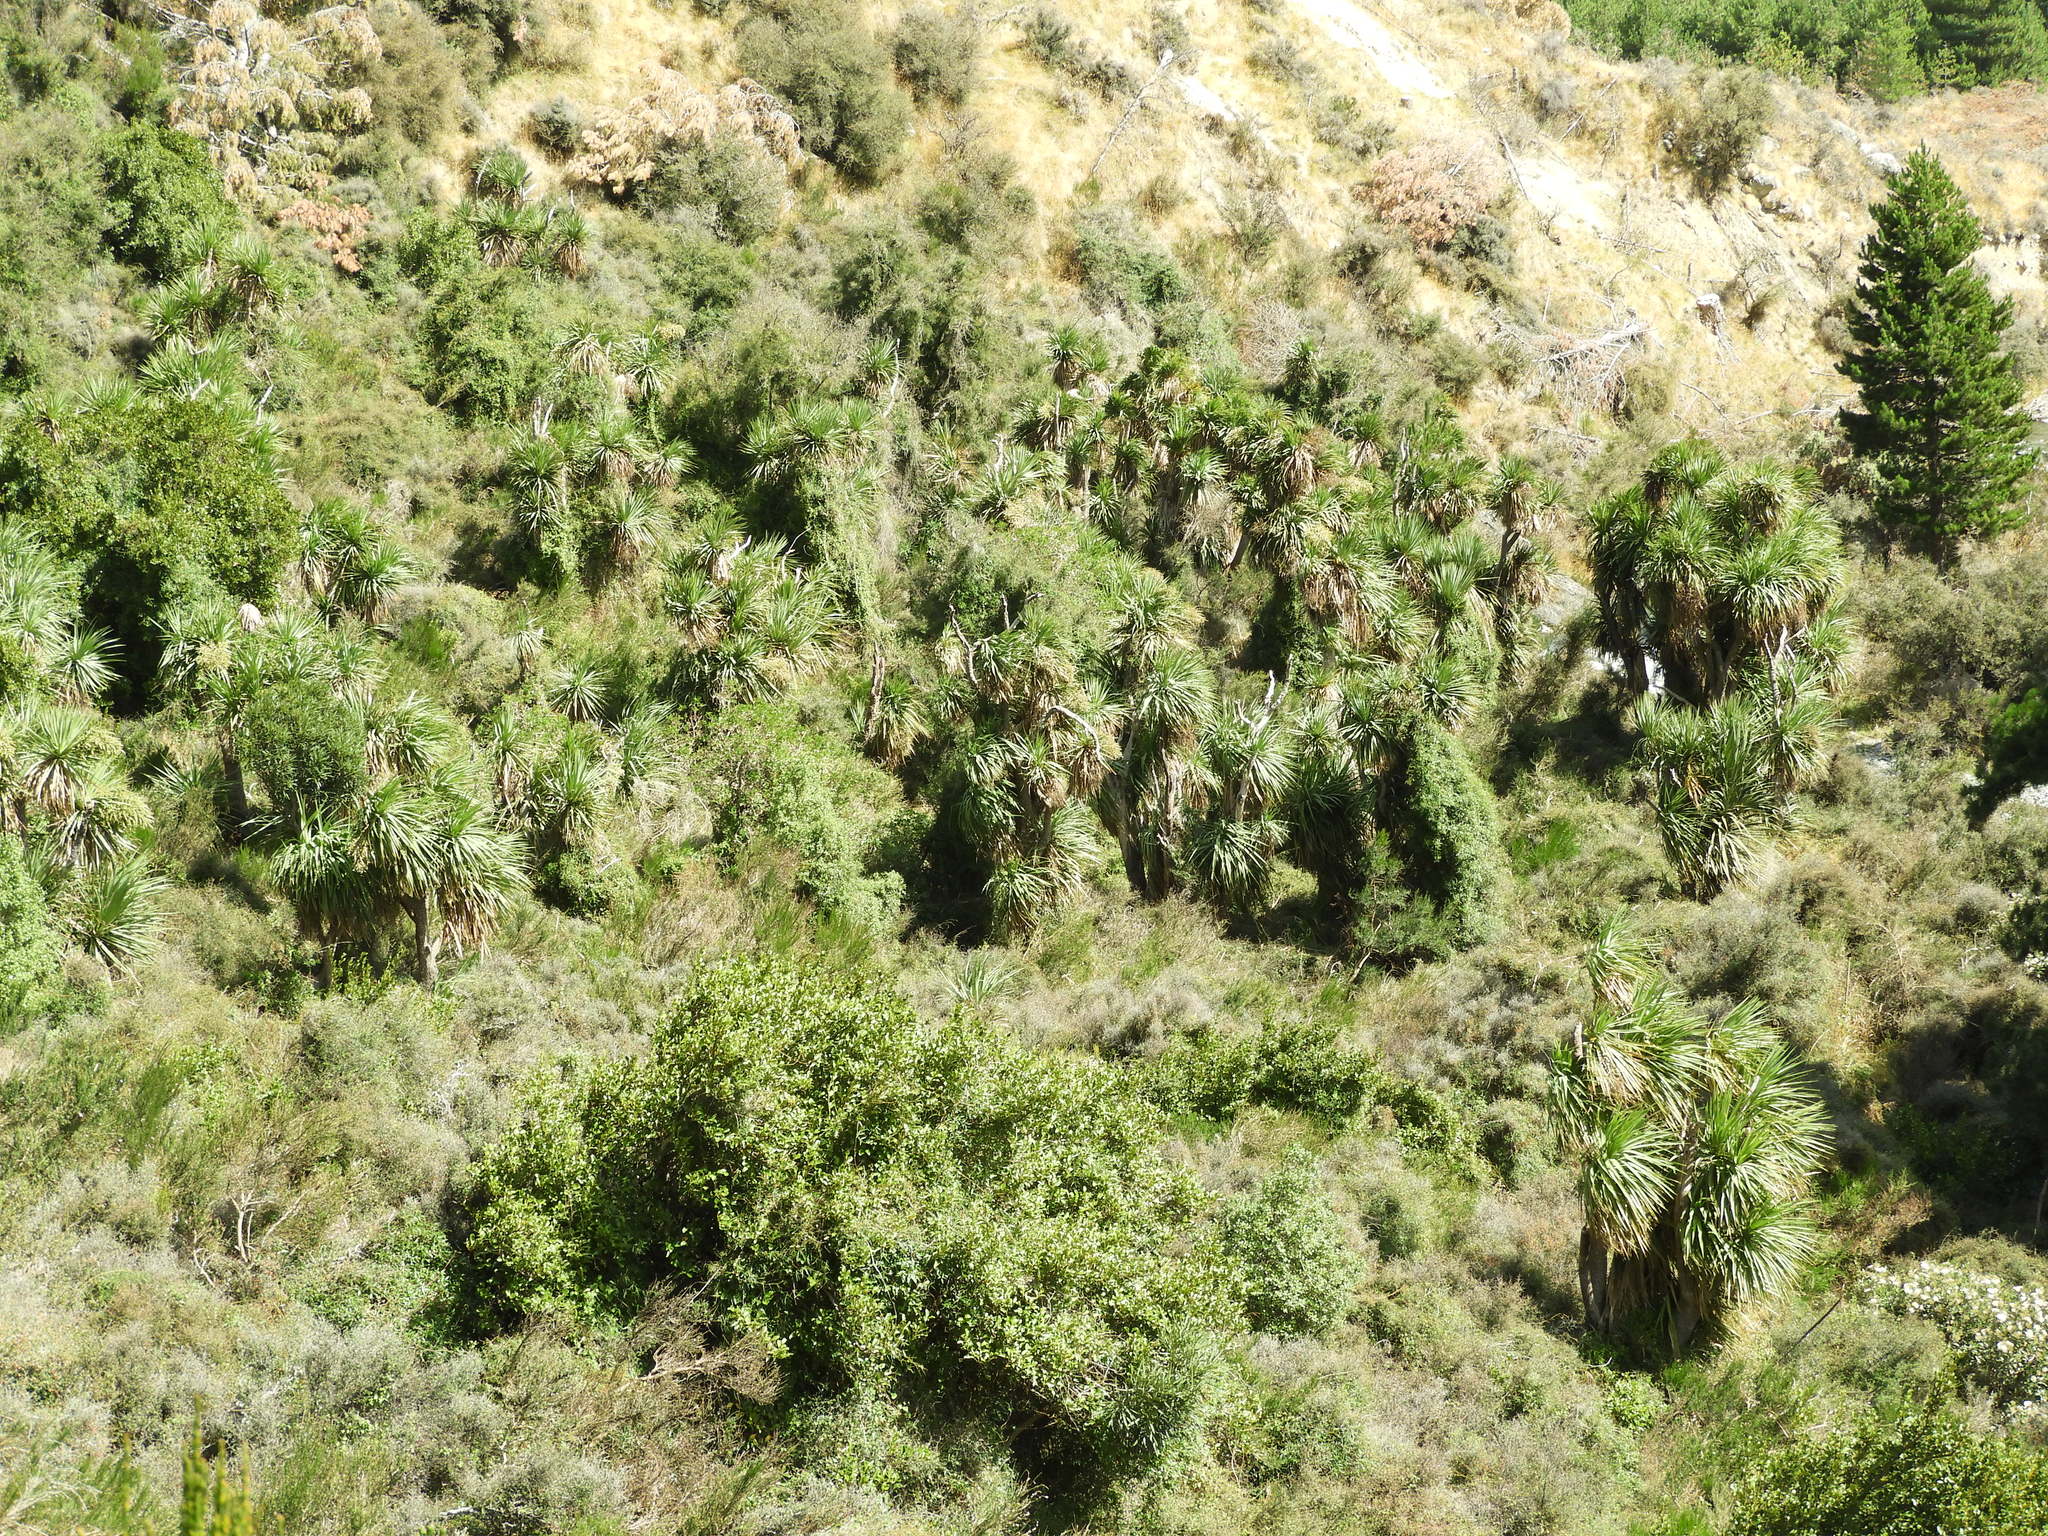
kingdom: Plantae
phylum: Tracheophyta
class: Liliopsida
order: Asparagales
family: Asparagaceae
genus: Cordyline
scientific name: Cordyline australis
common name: Cabbage-palm
